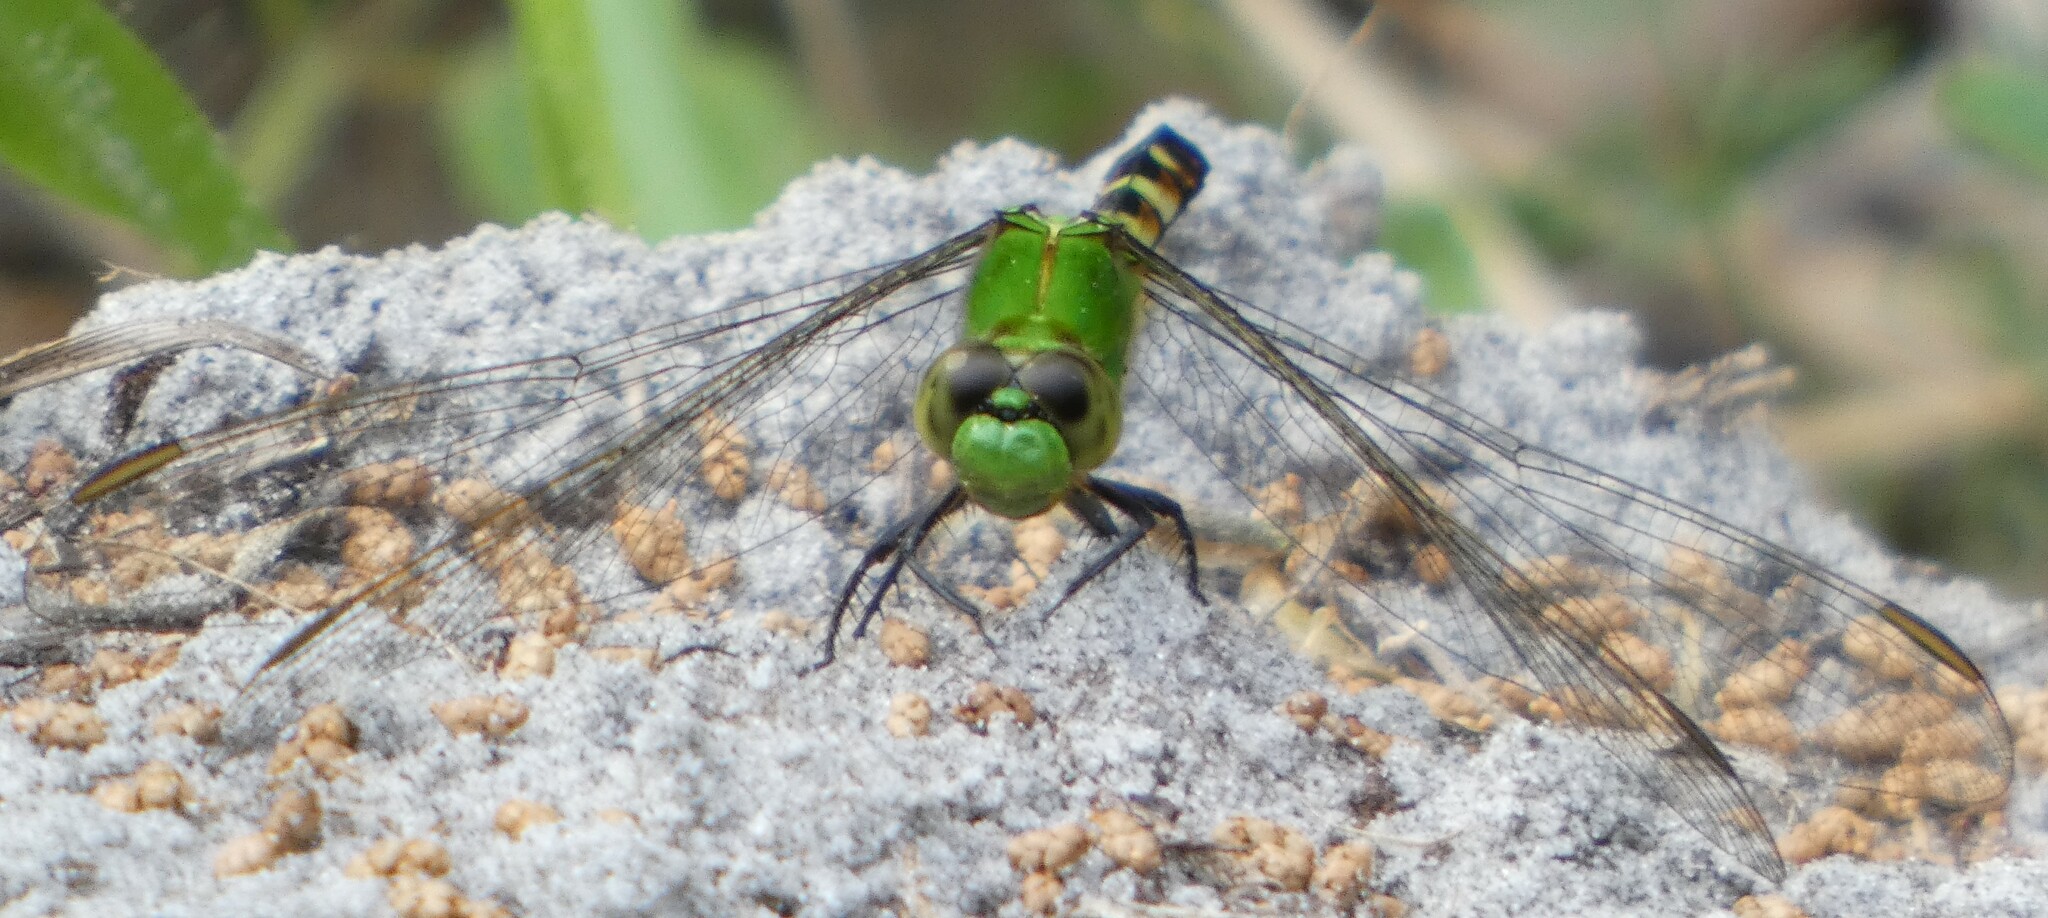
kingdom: Animalia
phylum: Arthropoda
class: Insecta
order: Odonata
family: Libellulidae
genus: Erythemis
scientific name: Erythemis simplicicollis
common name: Eastern pondhawk
